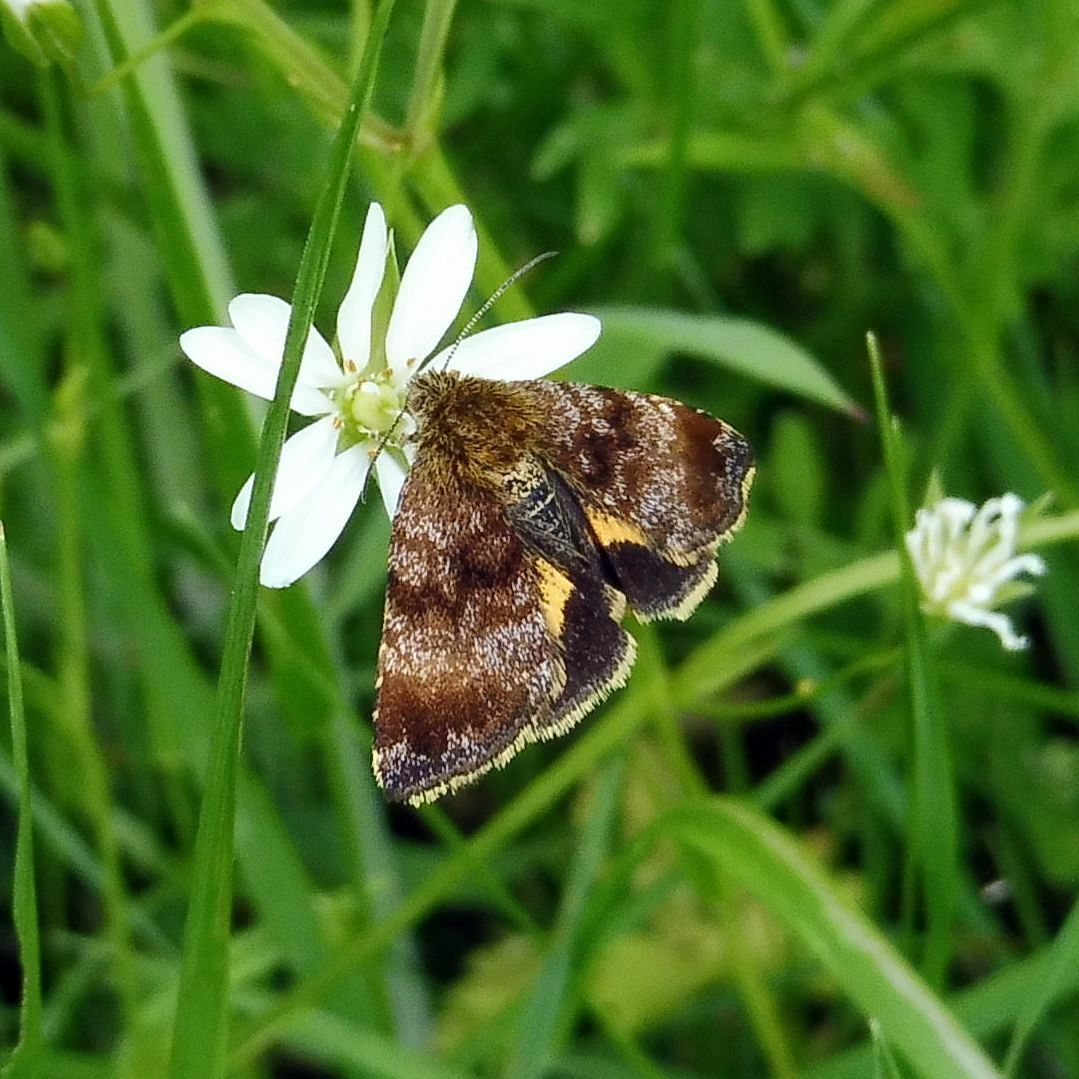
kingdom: Animalia
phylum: Arthropoda
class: Insecta
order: Lepidoptera
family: Noctuidae
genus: Panemeria
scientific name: Panemeria tenebrata
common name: Small yellow underwing
